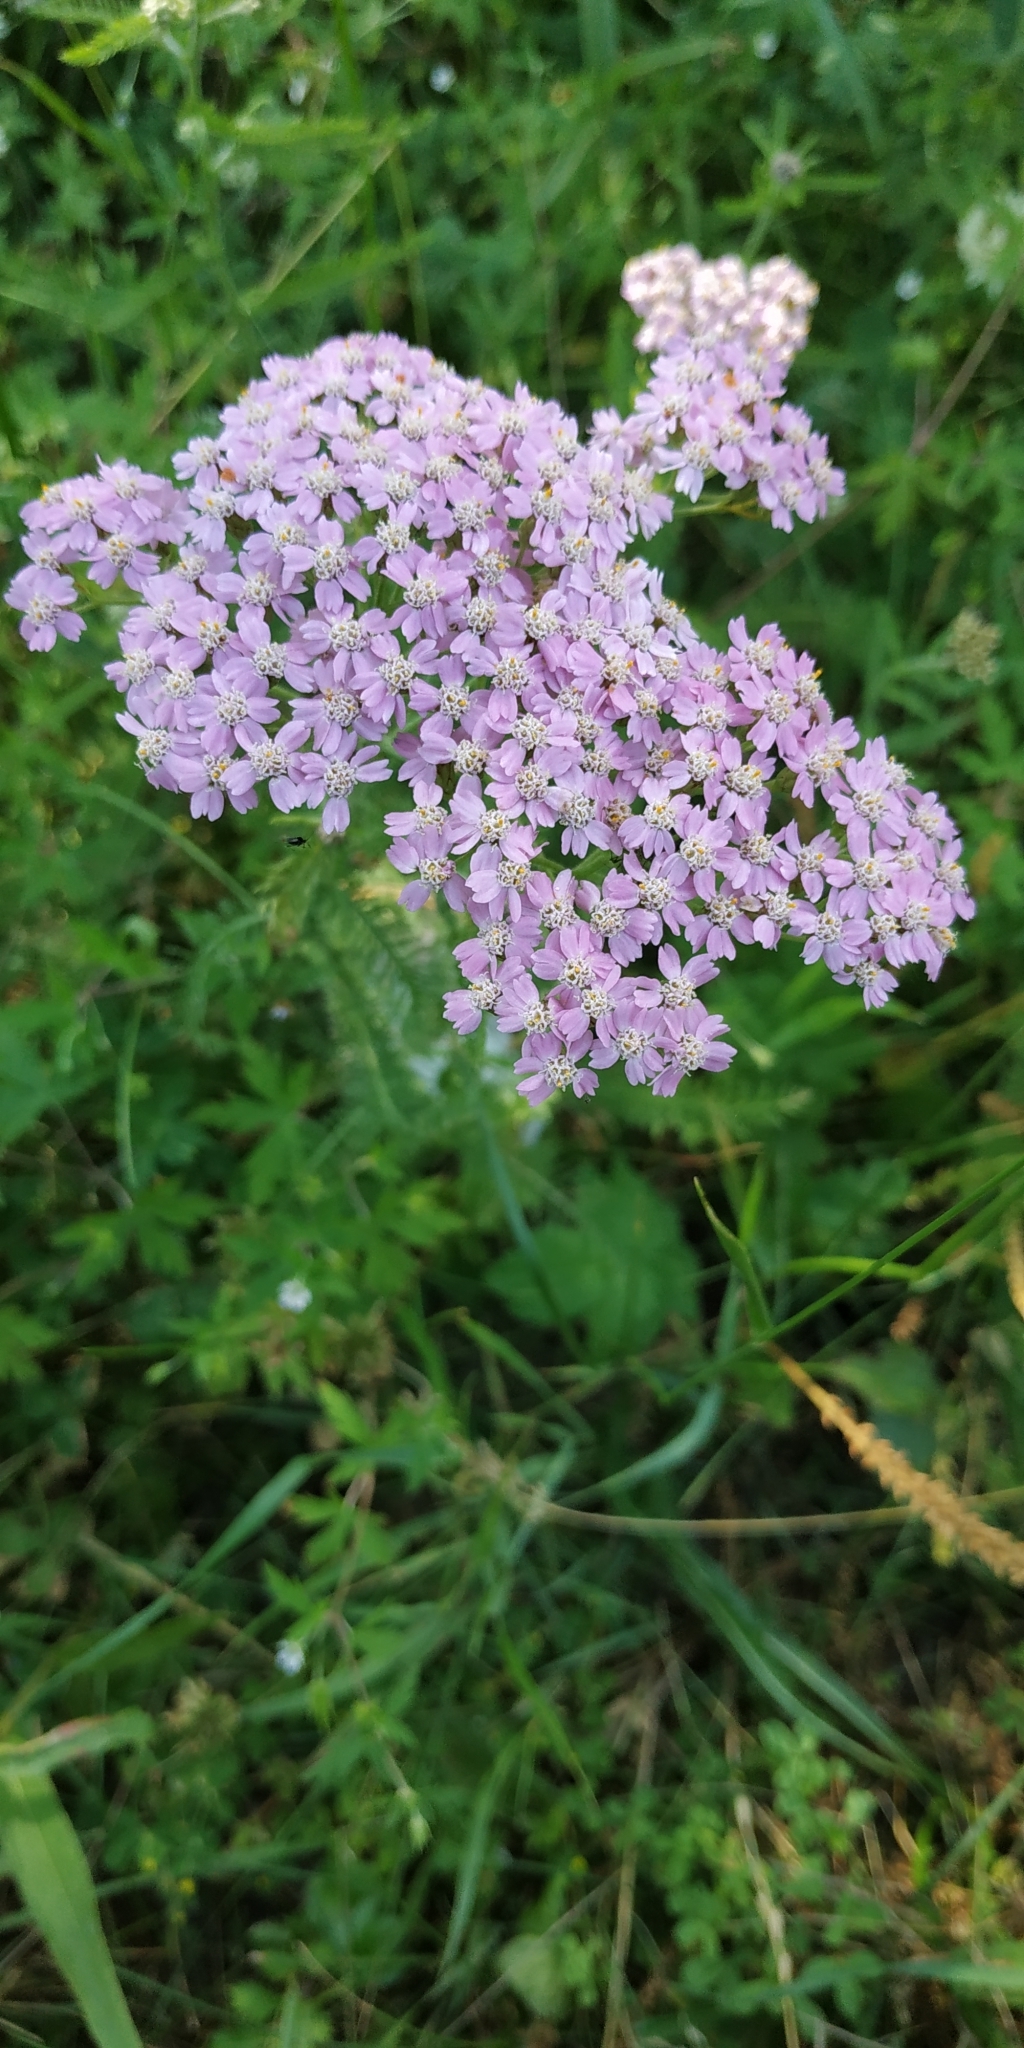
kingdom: Plantae
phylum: Tracheophyta
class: Magnoliopsida
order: Asterales
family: Asteraceae
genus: Achillea
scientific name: Achillea millefolium
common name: Yarrow
